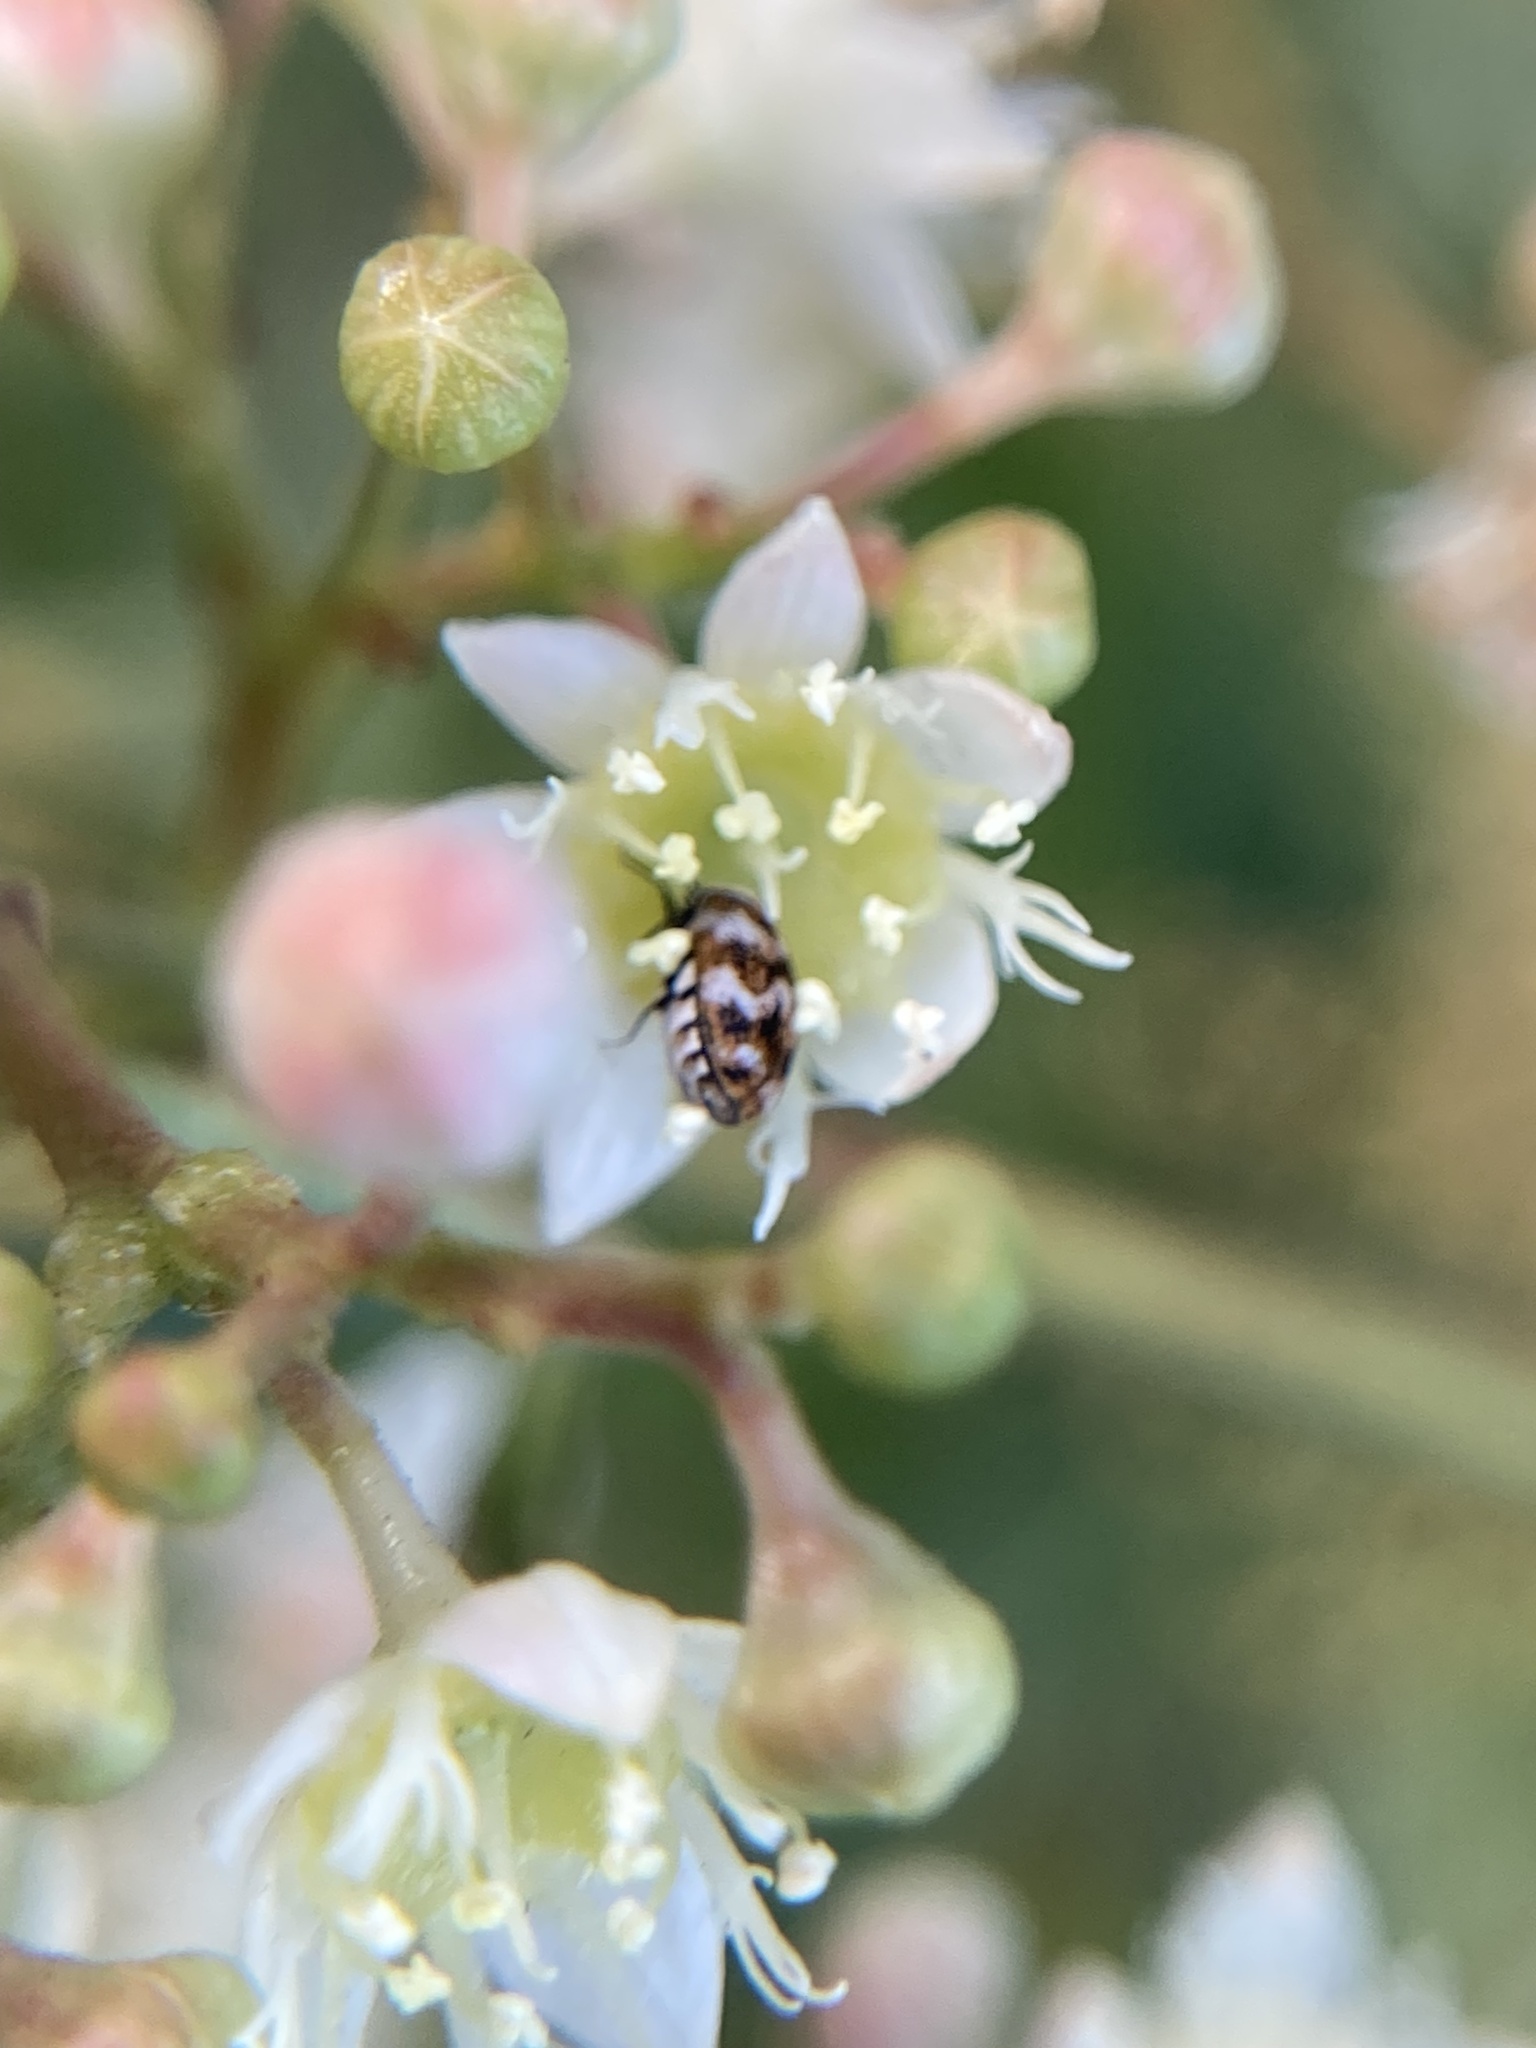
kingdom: Animalia
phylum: Arthropoda
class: Insecta
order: Coleoptera
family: Dermestidae
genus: Anthrenus
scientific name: Anthrenus verbasci
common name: Varied carpet beetle
